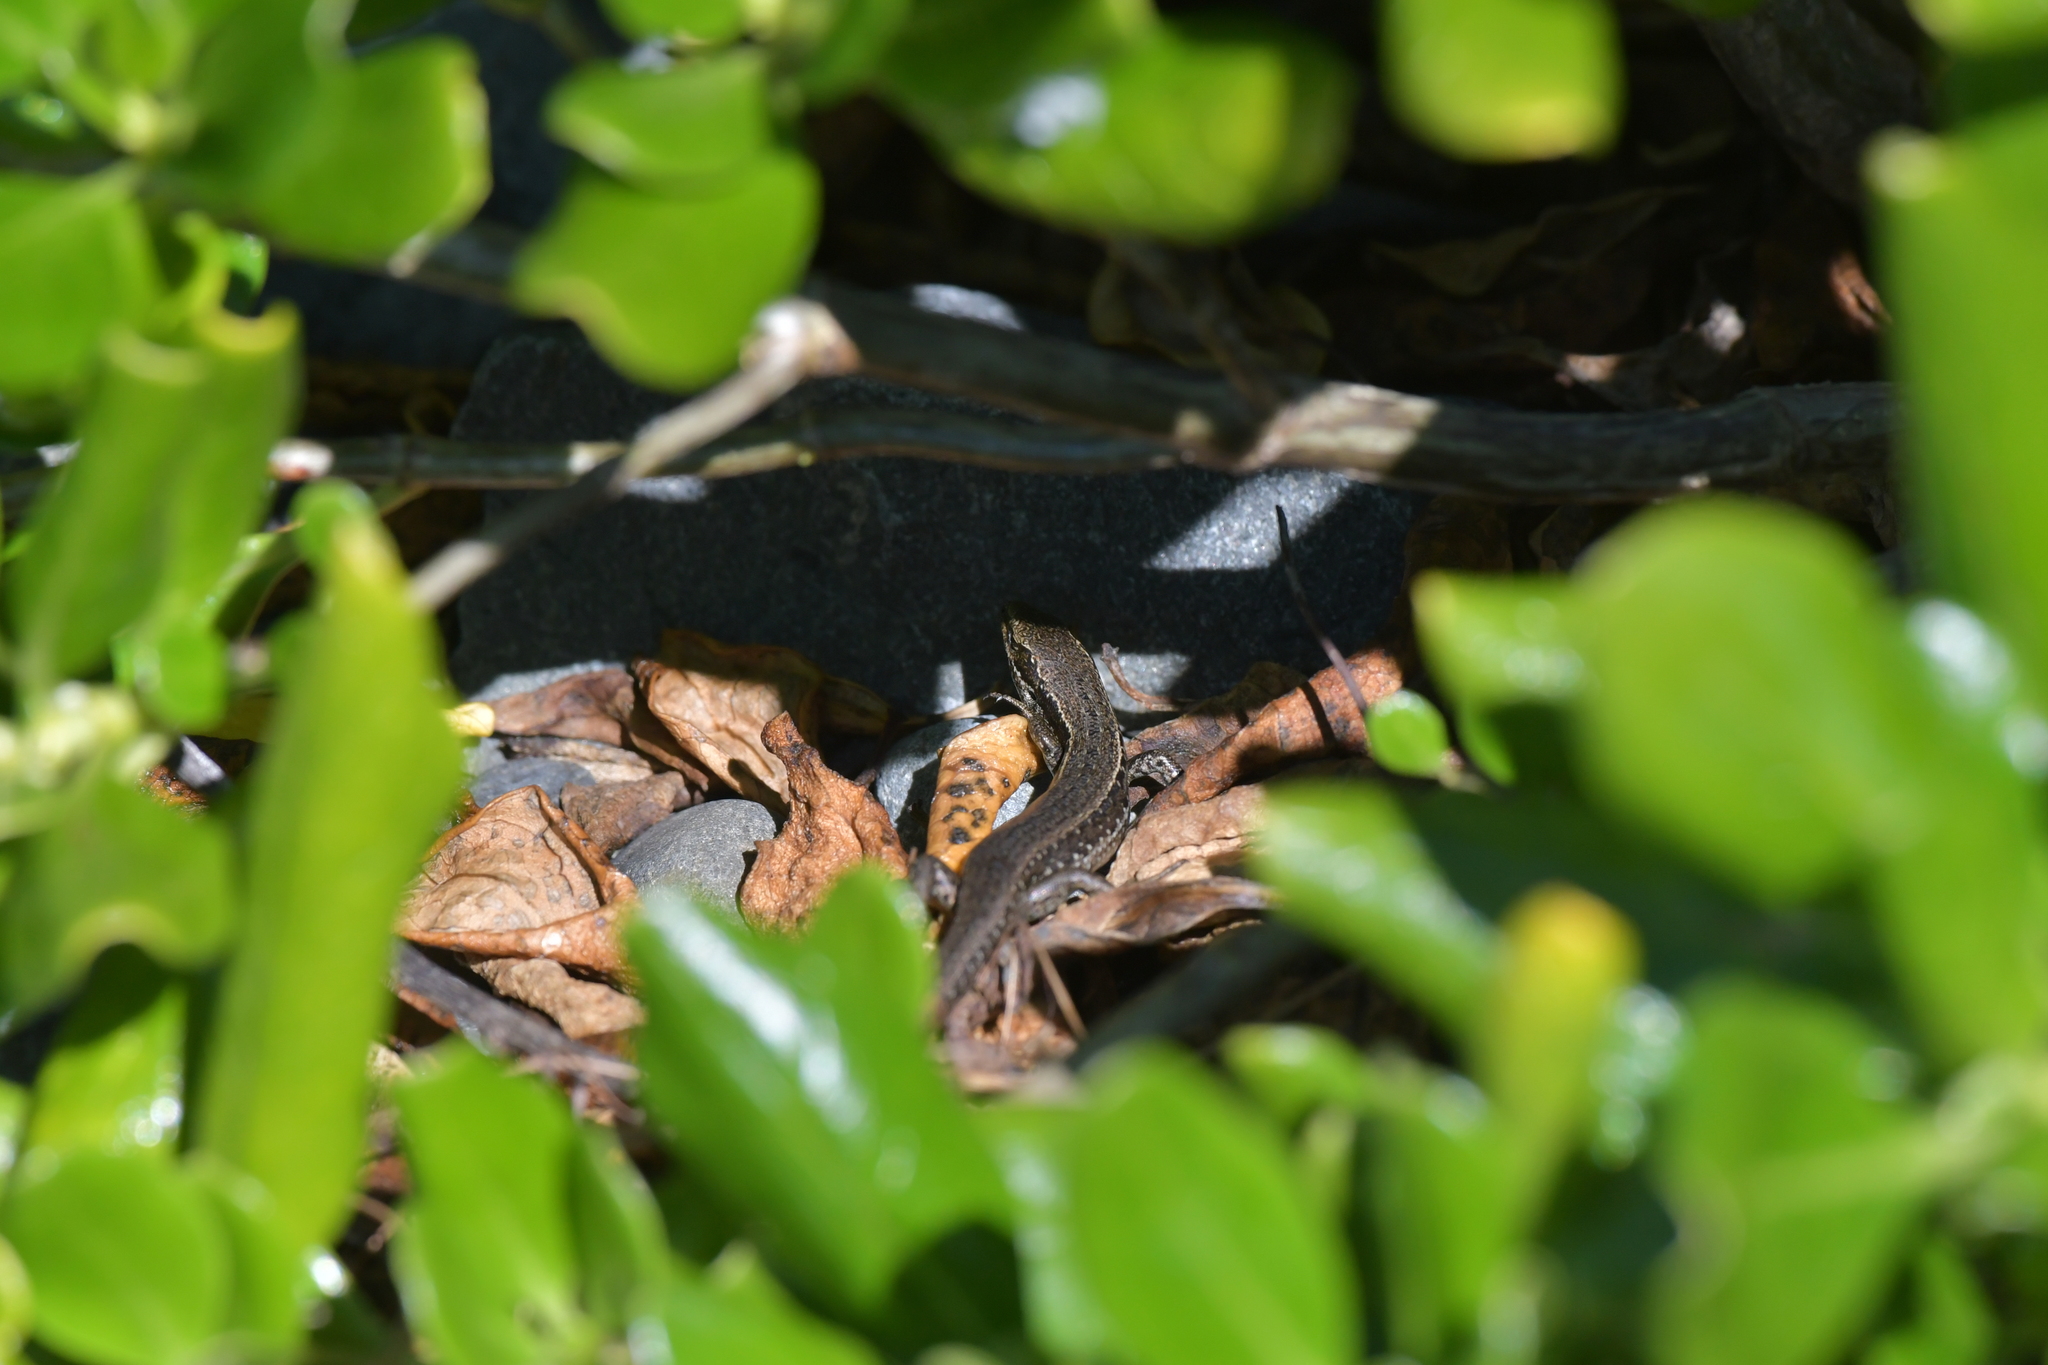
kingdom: Animalia
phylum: Chordata
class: Squamata
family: Scincidae
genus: Oligosoma
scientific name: Oligosoma polychroma
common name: Common new zealand skink
